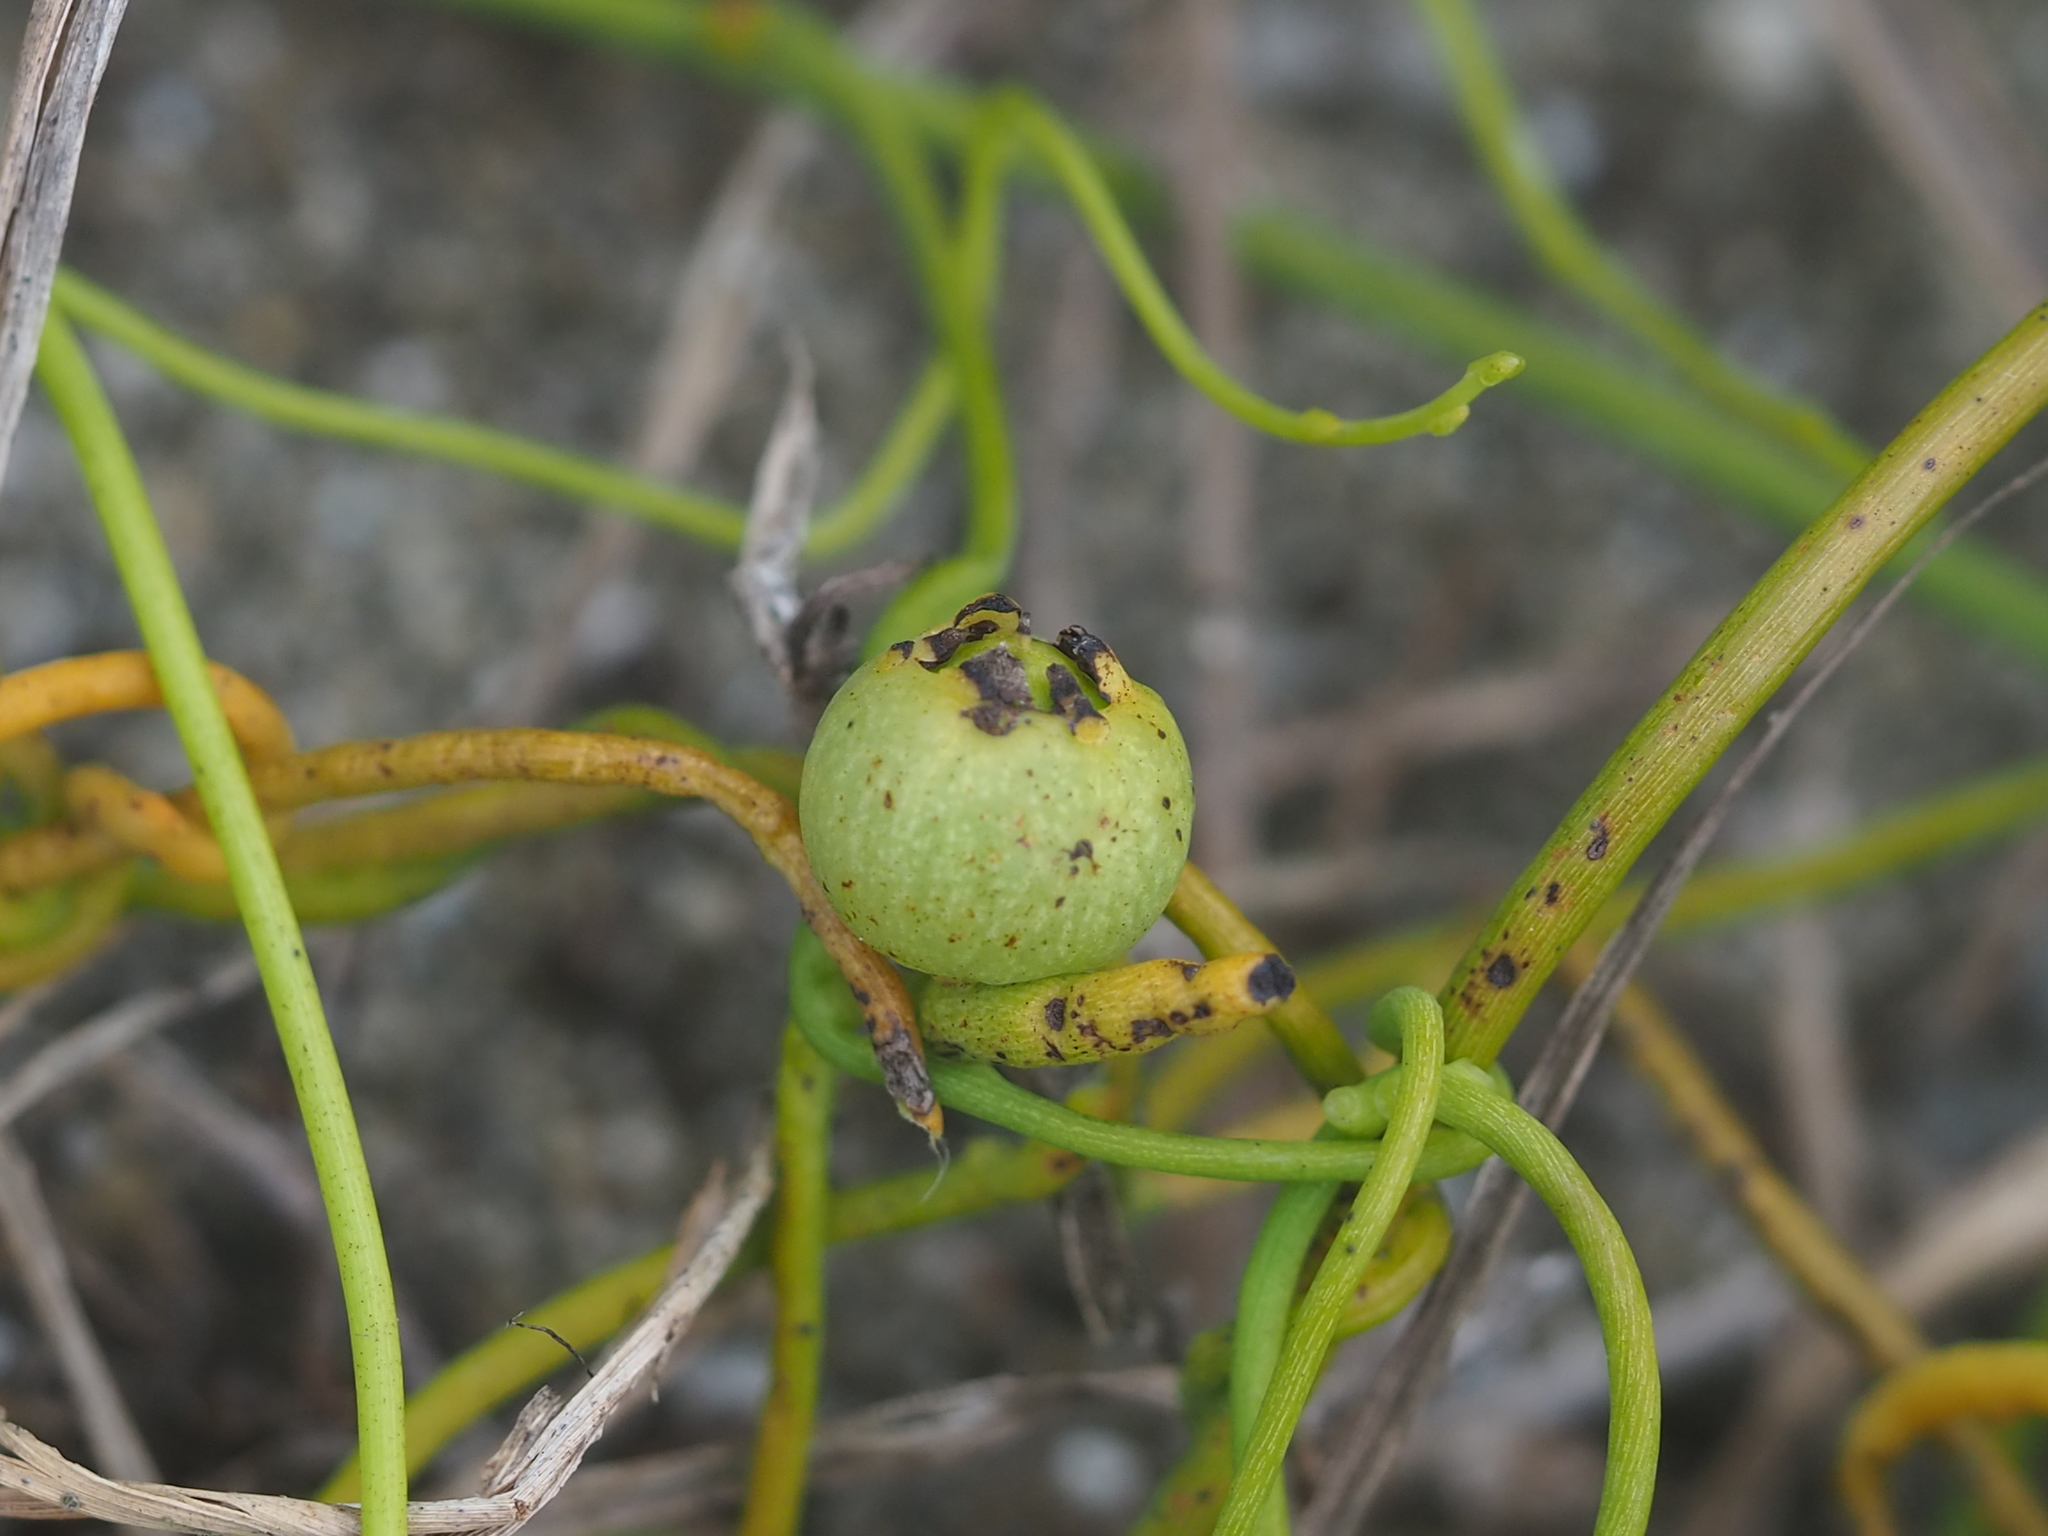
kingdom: Plantae
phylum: Tracheophyta
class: Magnoliopsida
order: Laurales
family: Lauraceae
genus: Cassytha
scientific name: Cassytha filiformis
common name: Dodder-laurel
